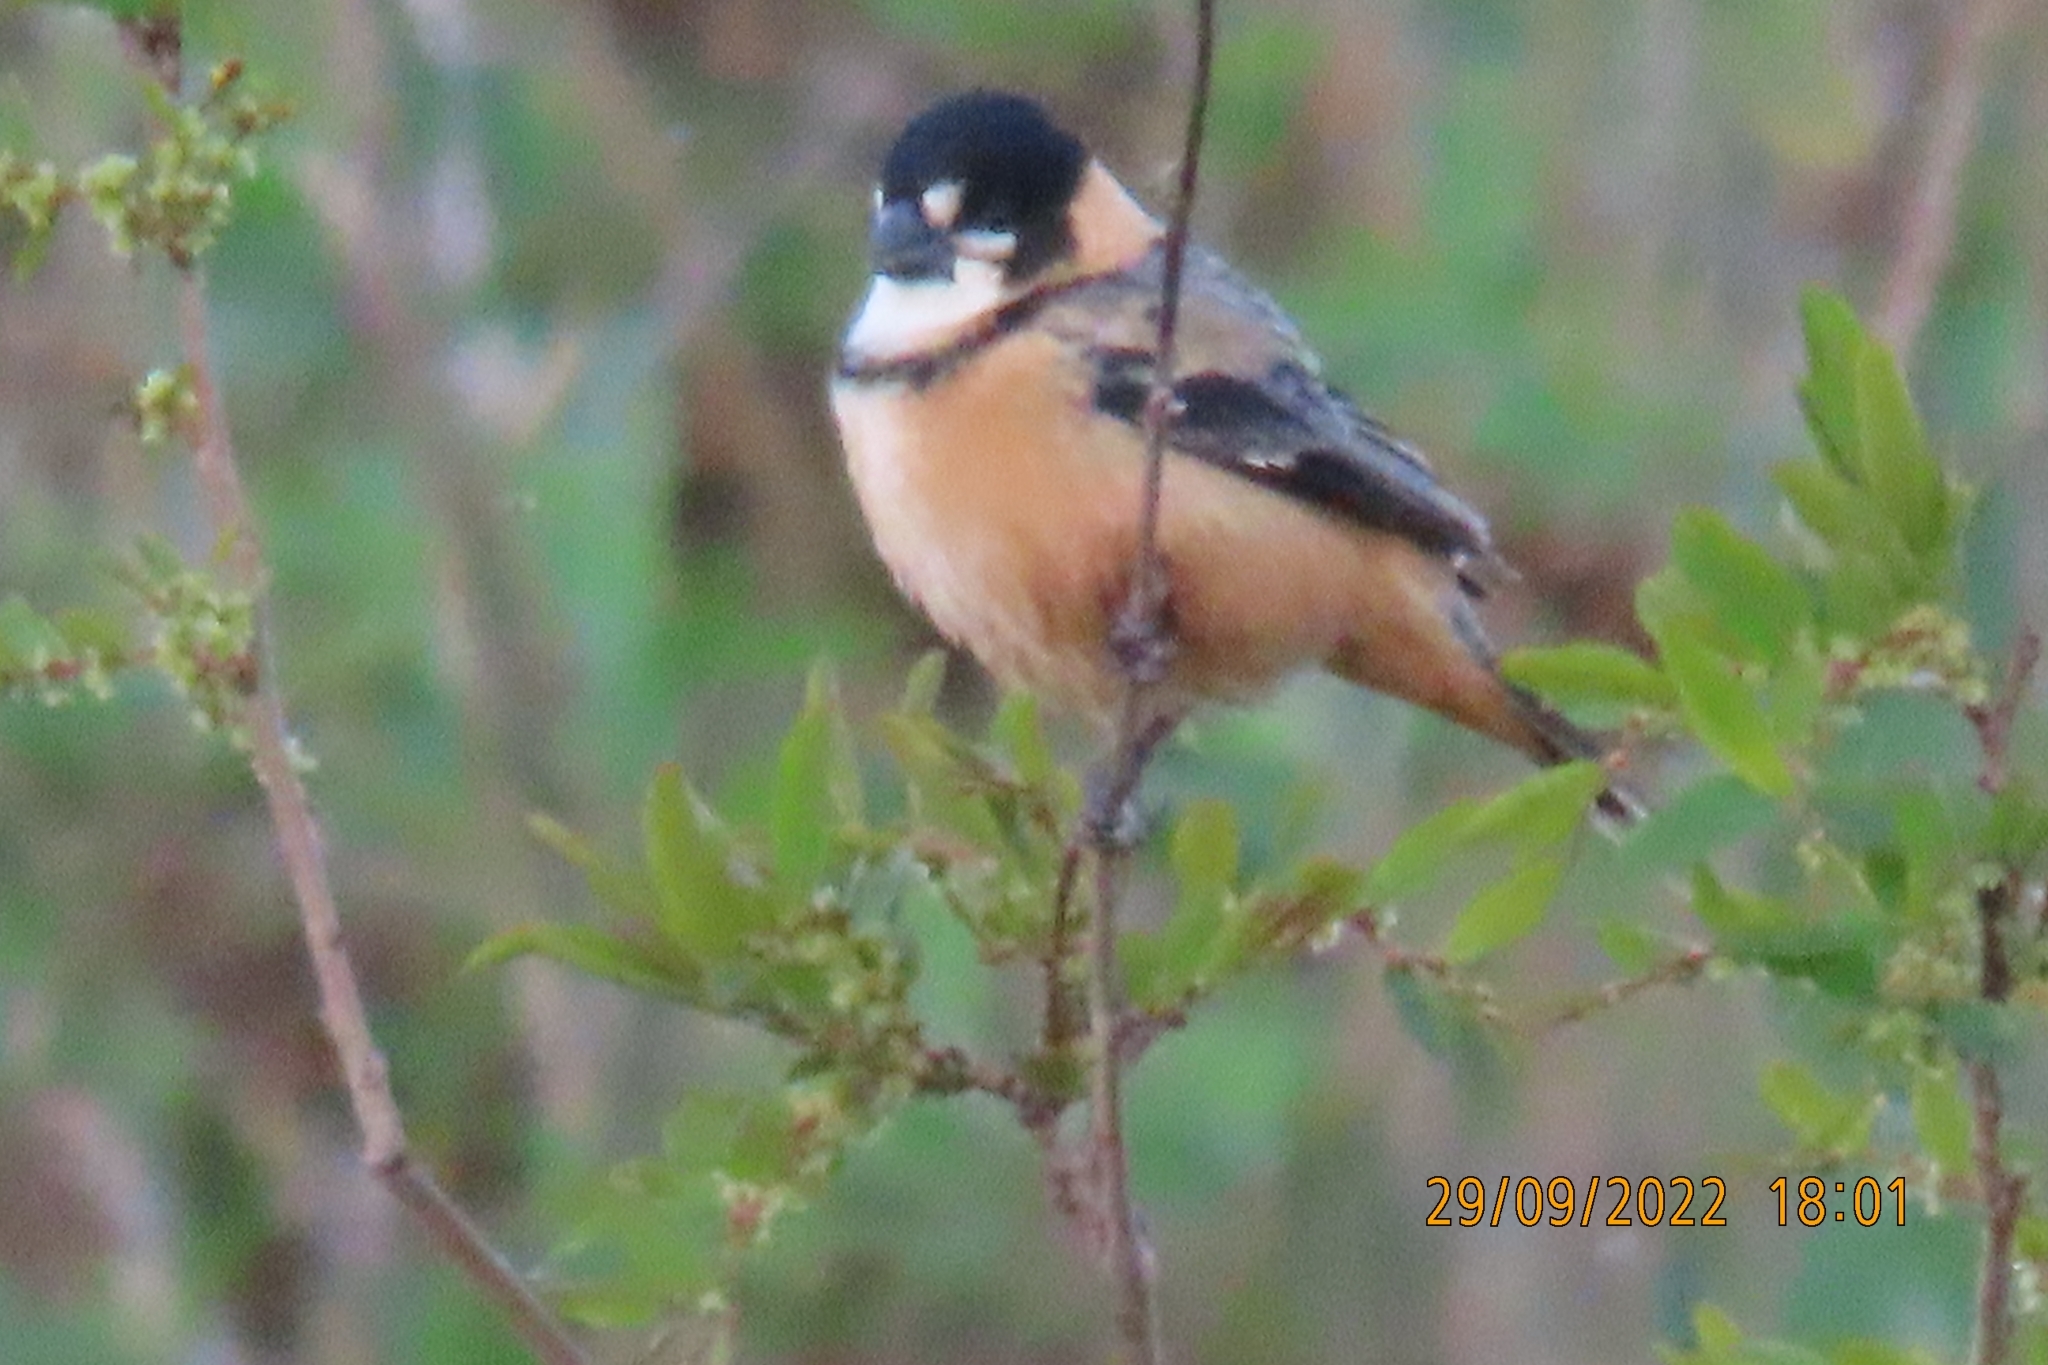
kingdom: Animalia
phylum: Chordata
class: Aves
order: Passeriformes
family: Thraupidae
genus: Sporophila
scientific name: Sporophila collaris
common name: Rusty-collared seedeater
